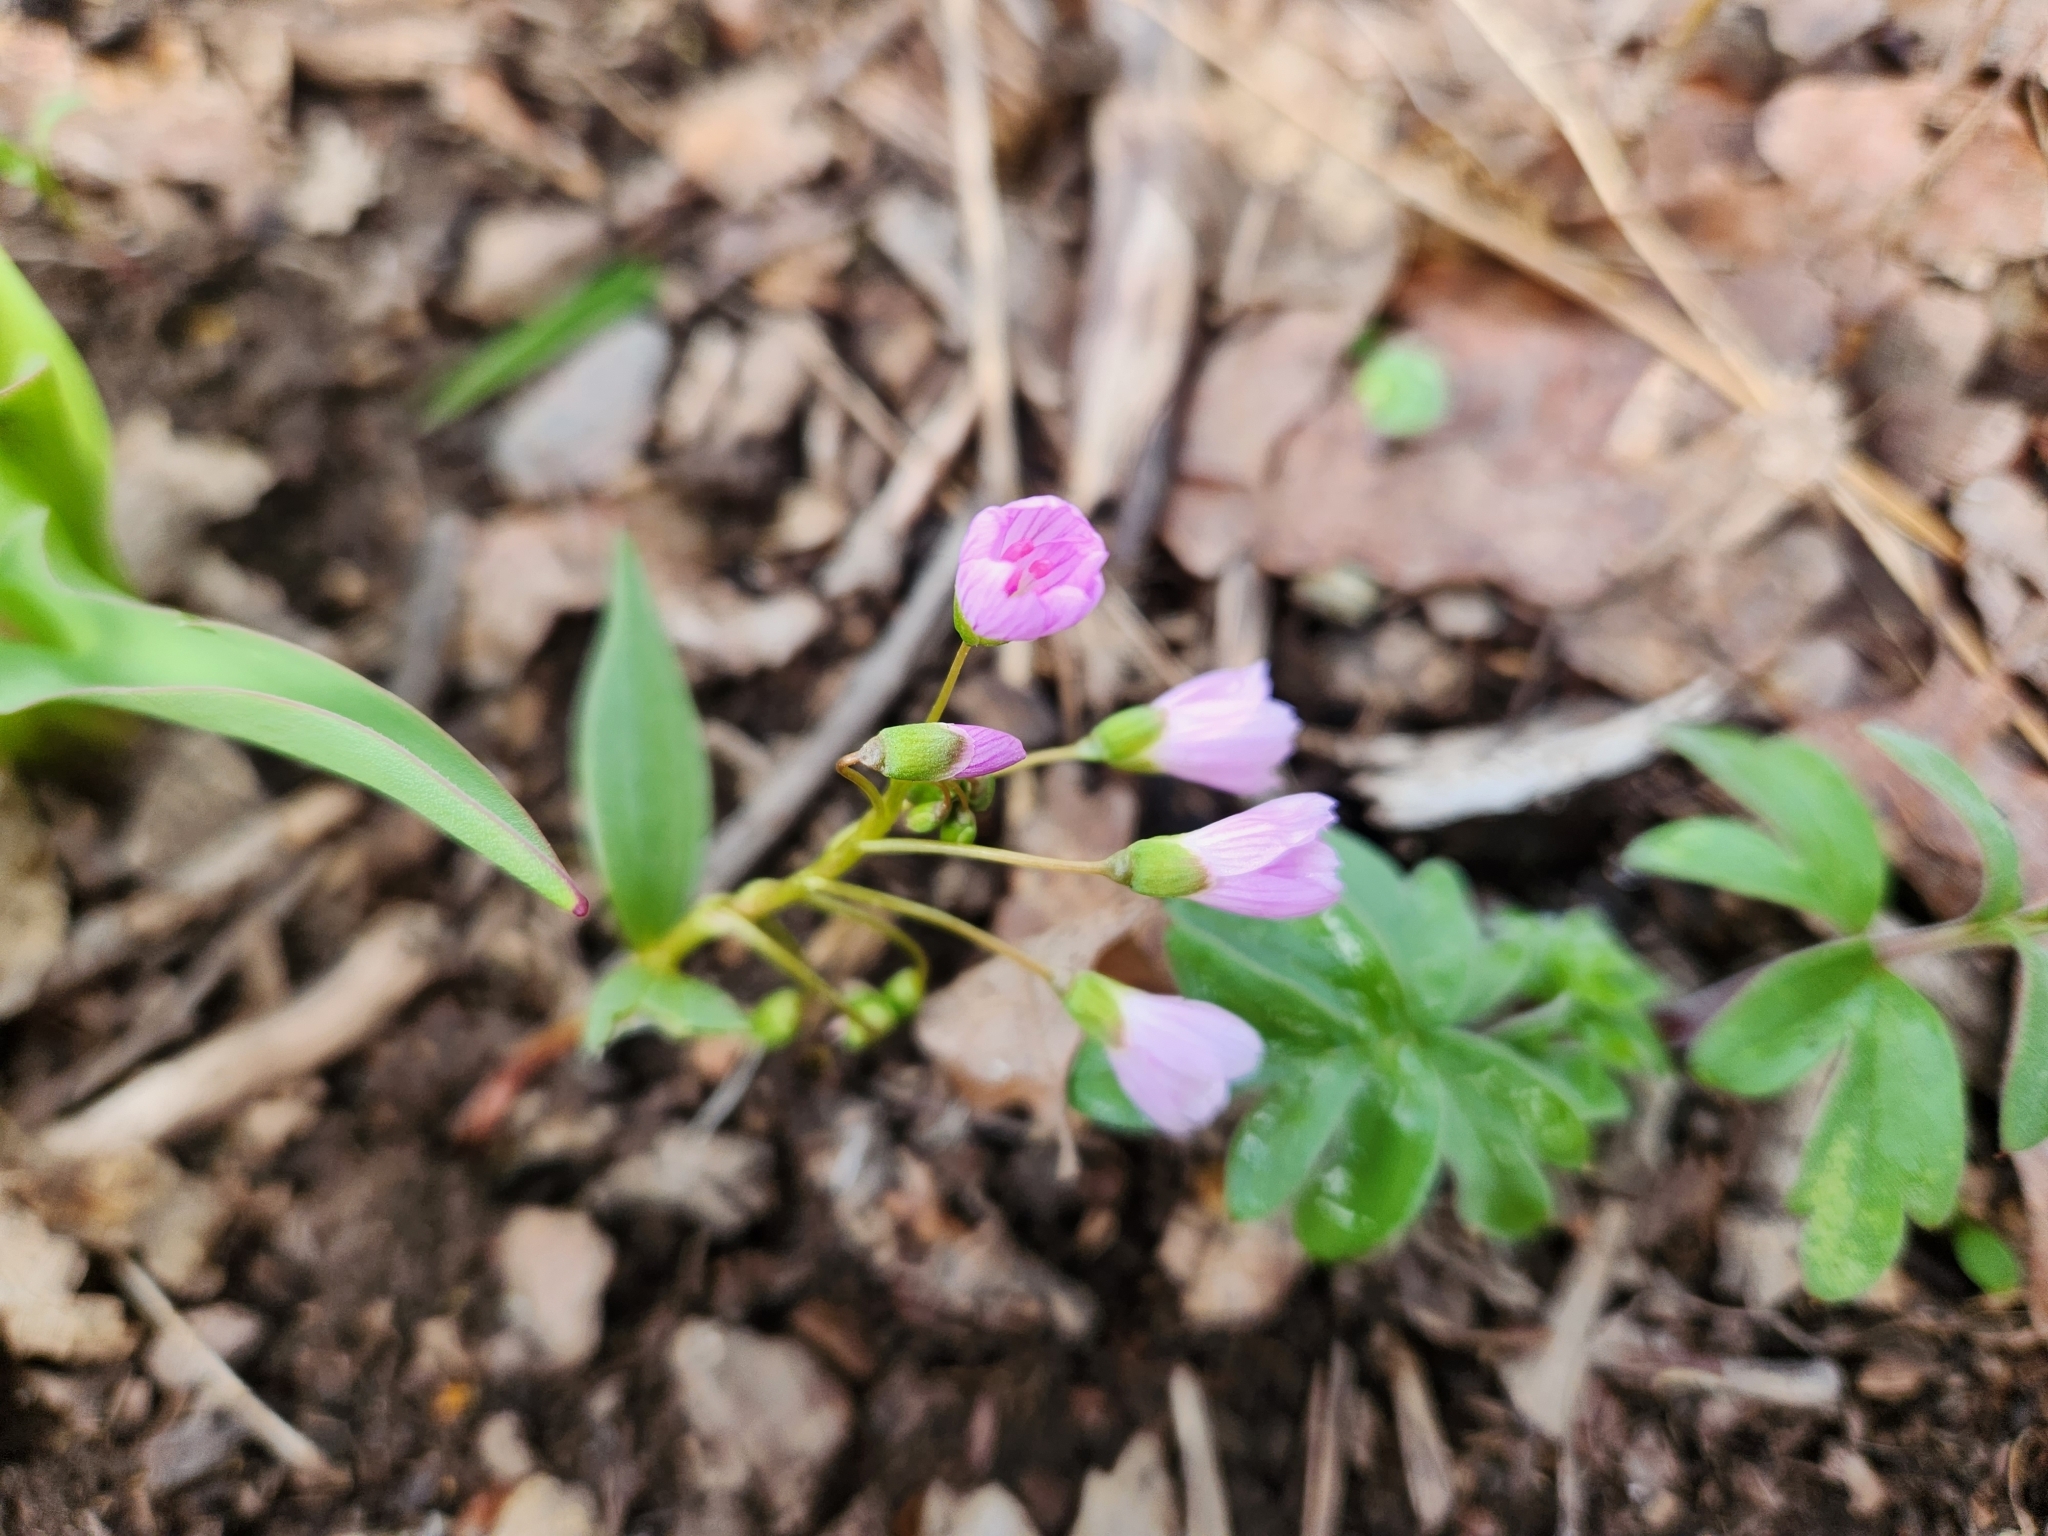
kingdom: Plantae
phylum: Tracheophyta
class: Magnoliopsida
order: Caryophyllales
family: Montiaceae
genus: Claytonia
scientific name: Claytonia lanceolata
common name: Western spring-beauty
